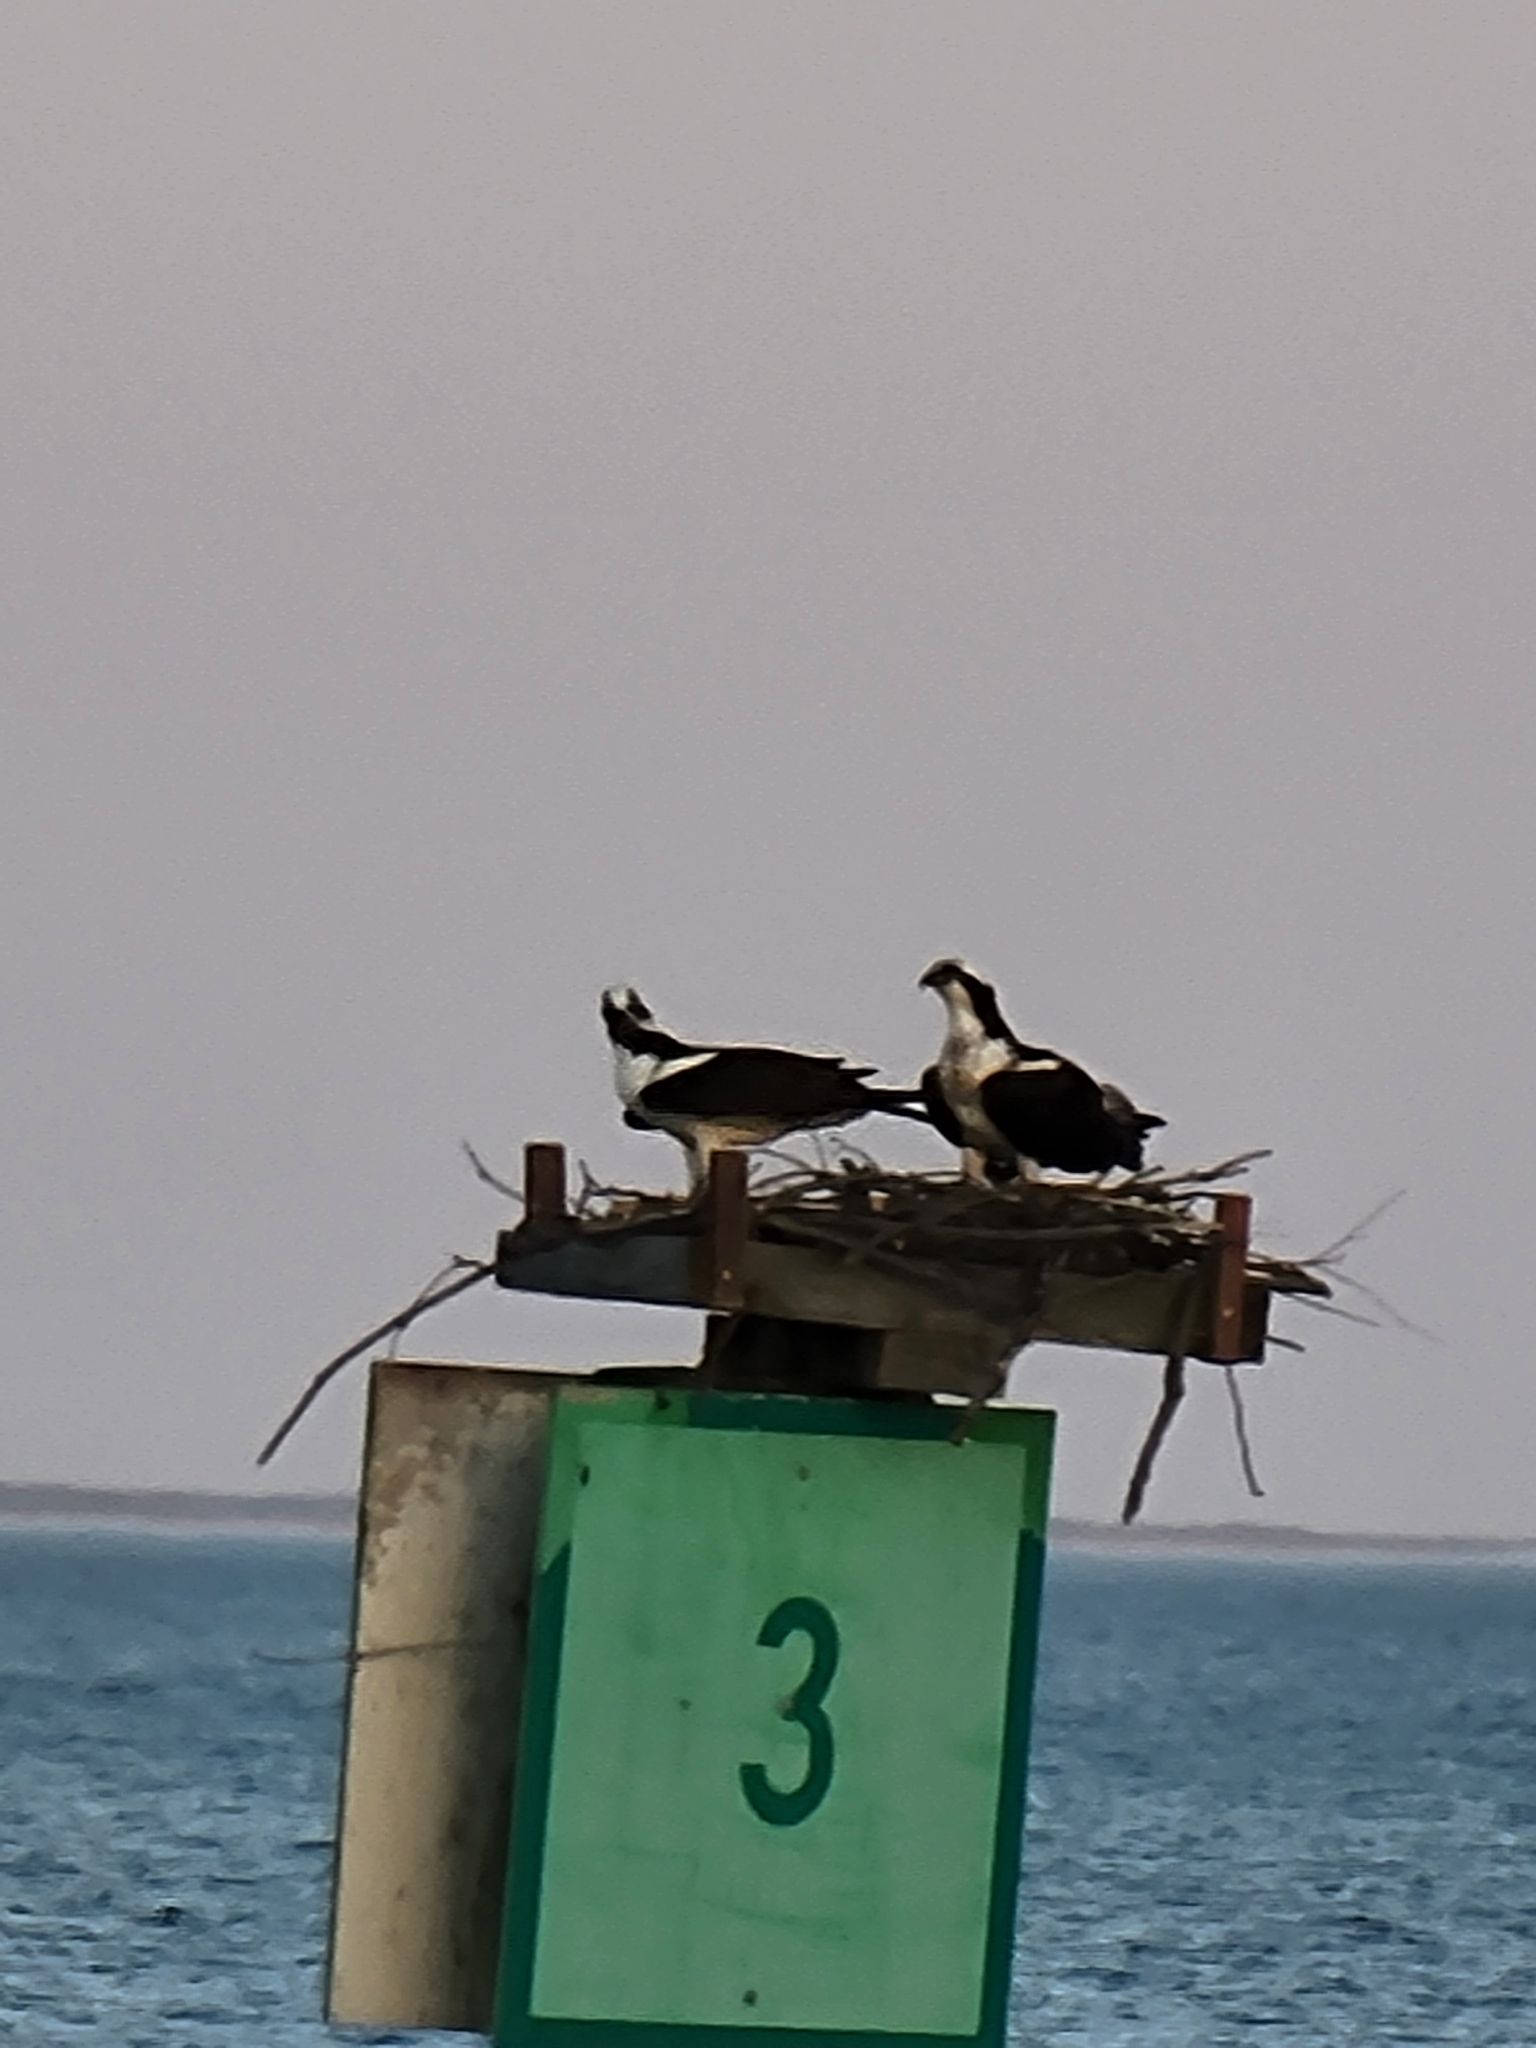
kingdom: Animalia
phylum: Chordata
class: Aves
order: Accipitriformes
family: Pandionidae
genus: Pandion
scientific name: Pandion haliaetus
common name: Osprey
